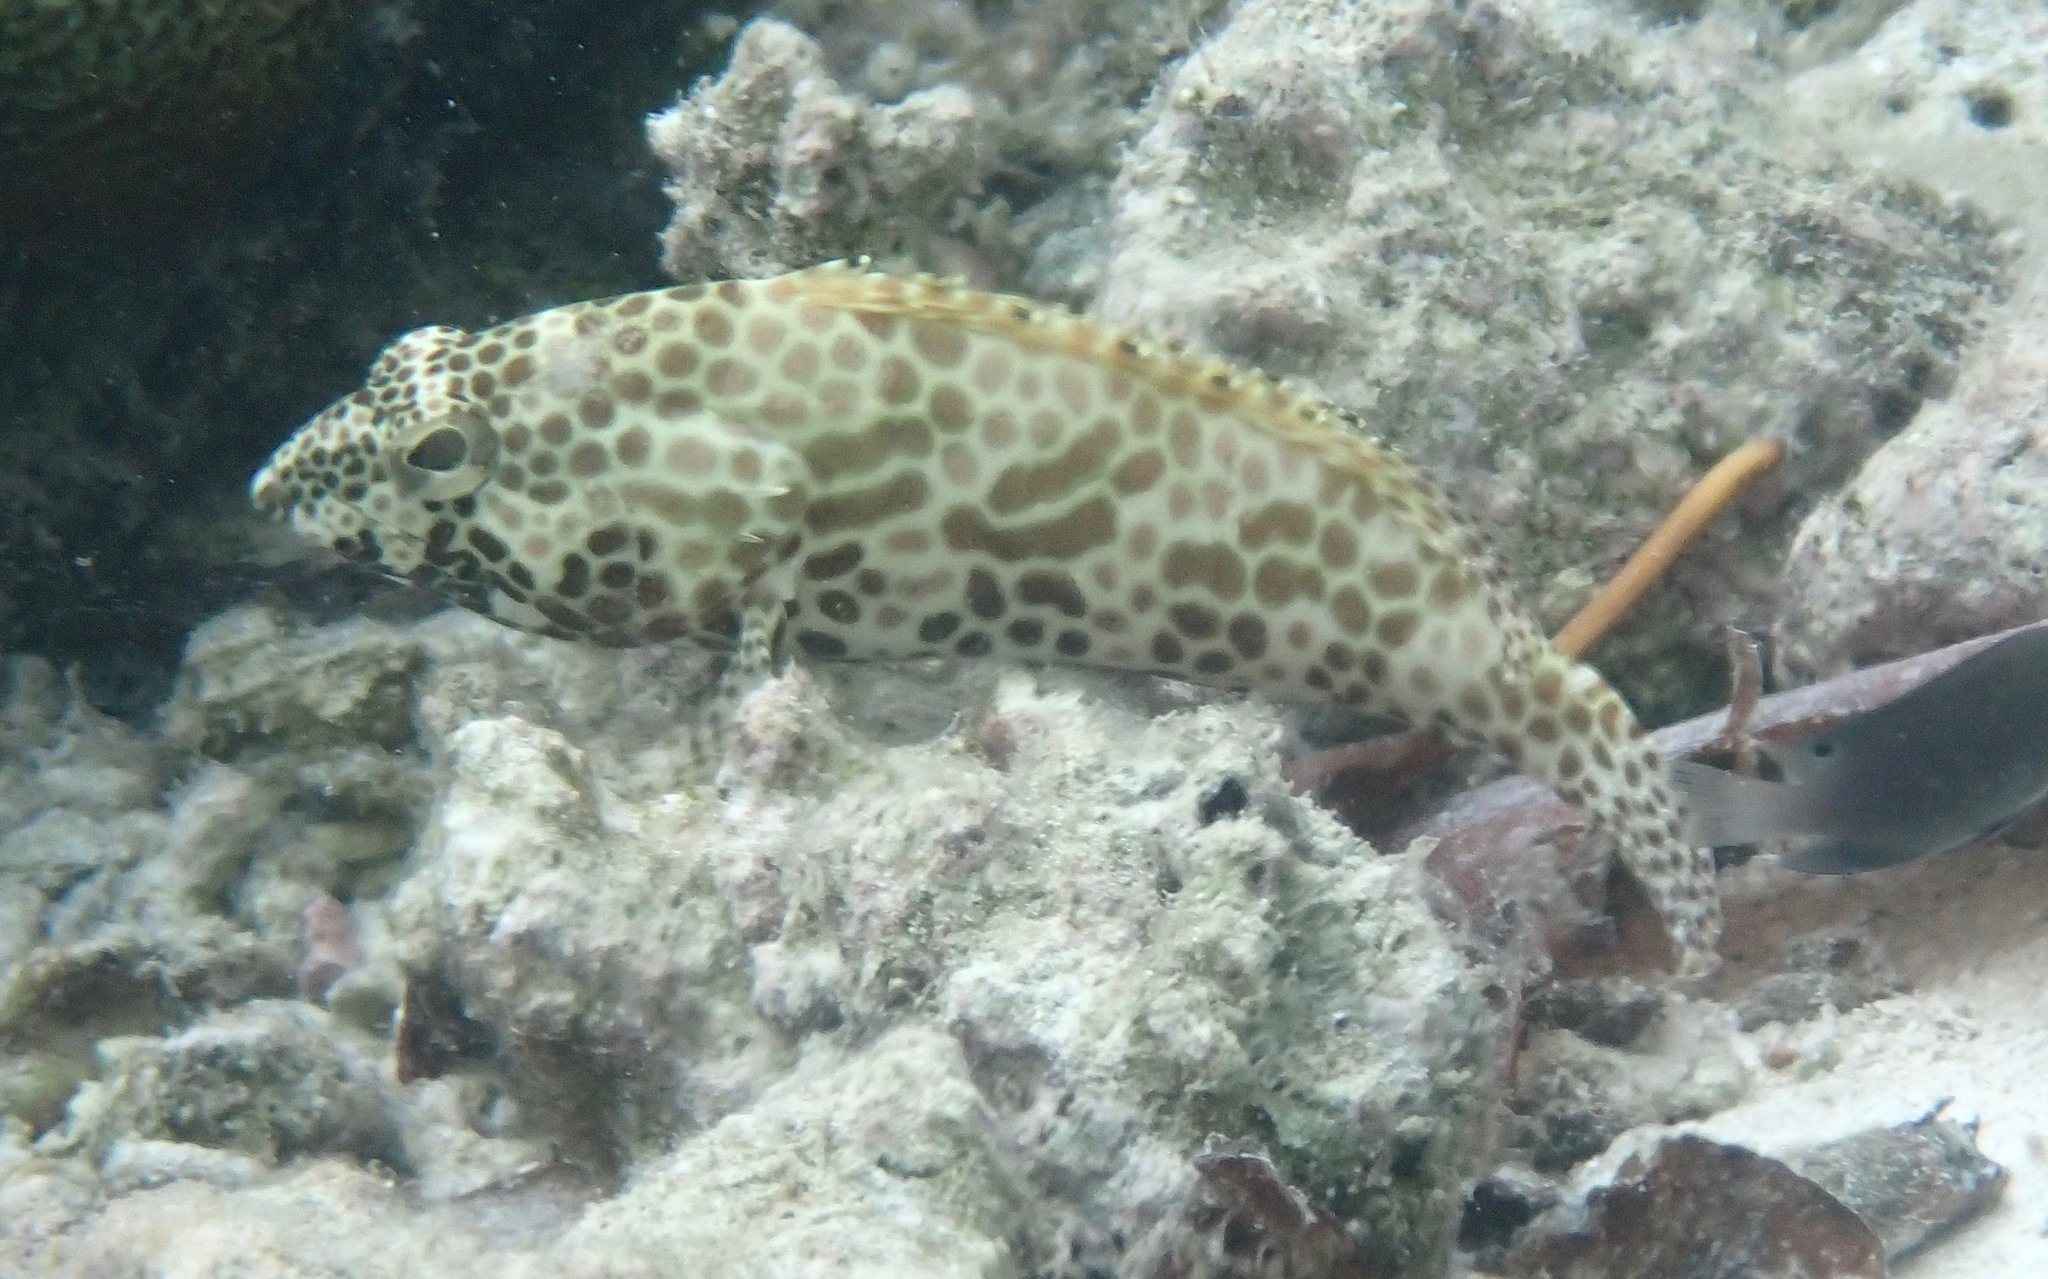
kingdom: Animalia
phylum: Chordata
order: Perciformes
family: Serranidae
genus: Epinephelus
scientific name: Epinephelus merra
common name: Honeycomb grouper
